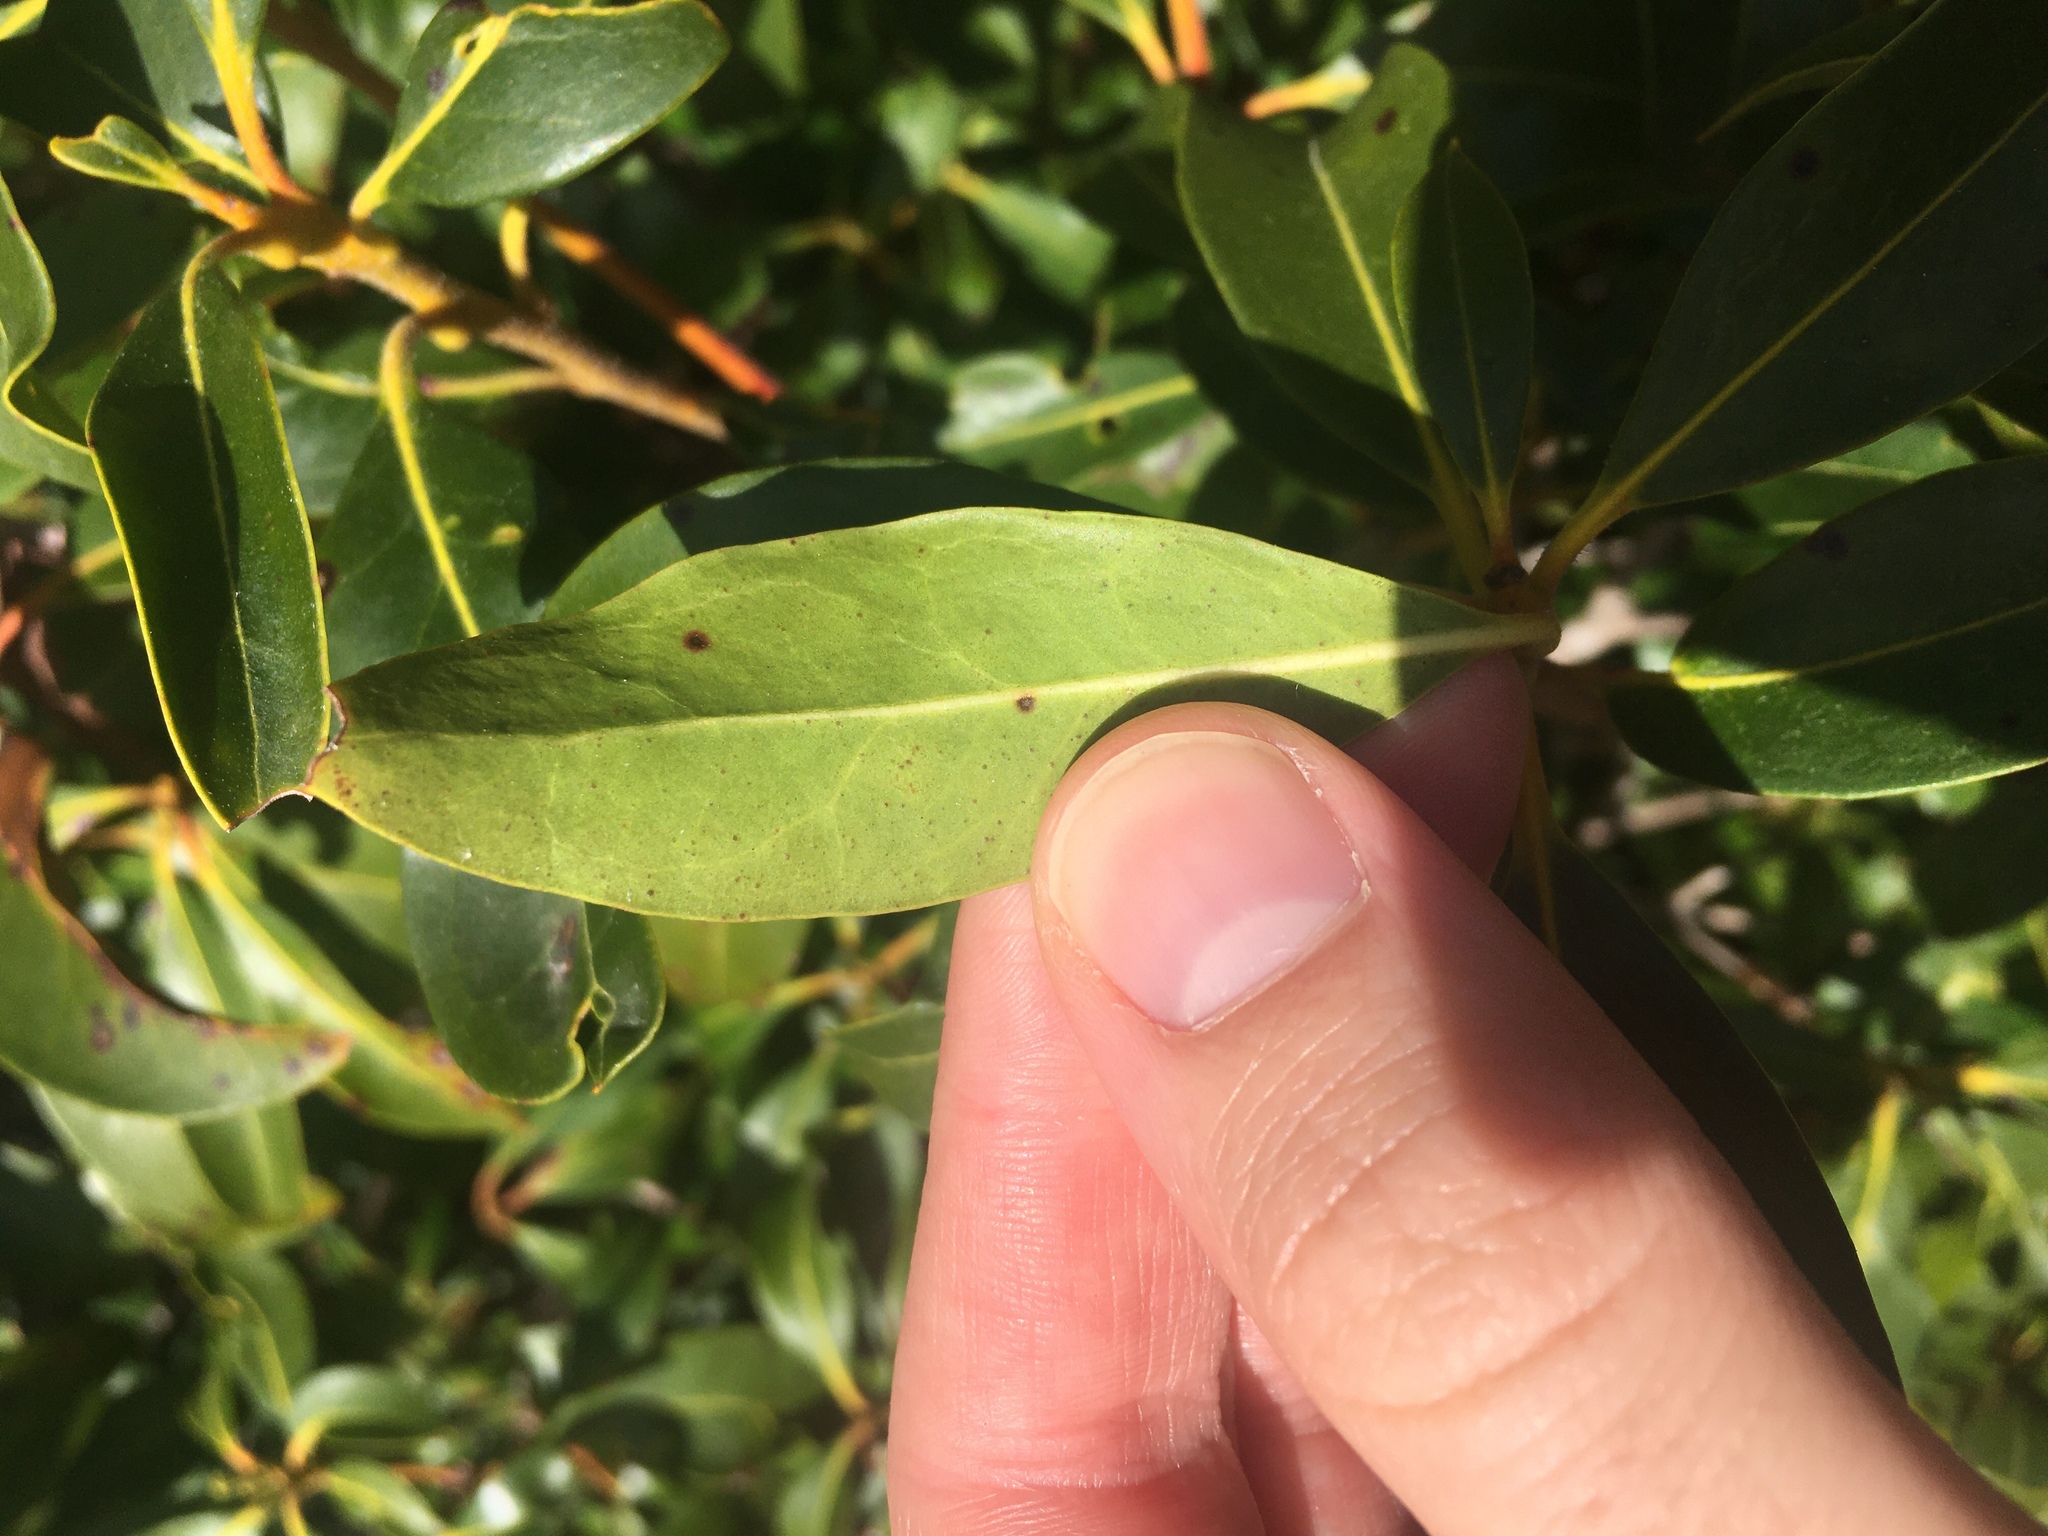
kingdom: Plantae
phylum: Tracheophyta
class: Magnoliopsida
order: Ericales
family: Ericaceae
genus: Kalmia
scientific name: Kalmia latifolia
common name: Mountain-laurel
